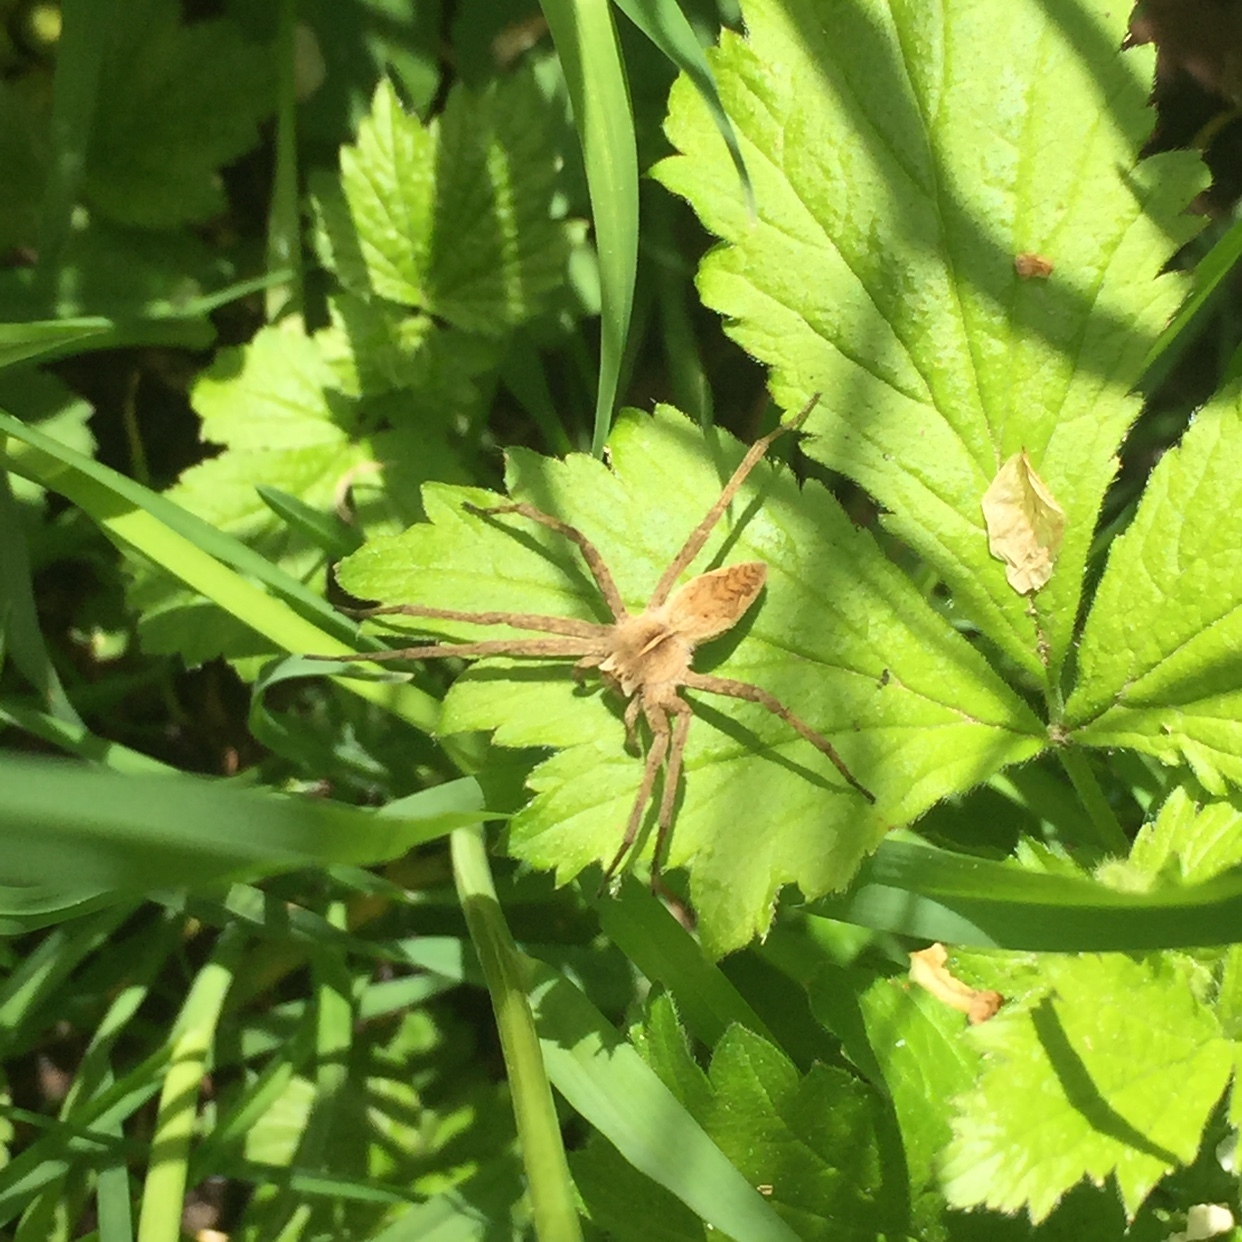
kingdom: Animalia
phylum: Arthropoda
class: Arachnida
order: Araneae
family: Pisauridae
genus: Pisaura
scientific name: Pisaura mirabilis
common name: Tent spider
